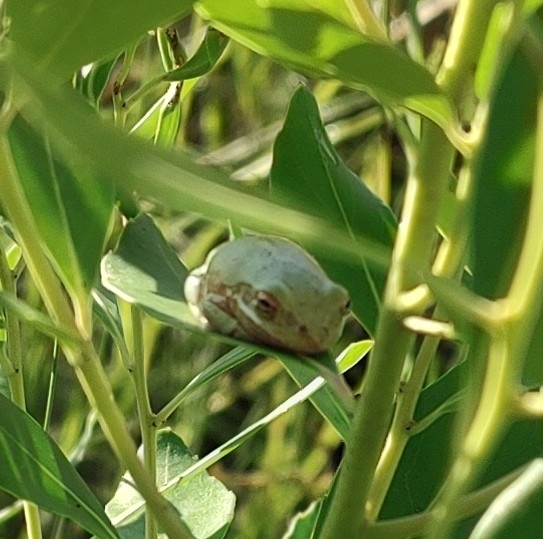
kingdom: Animalia
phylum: Chordata
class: Amphibia
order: Anura
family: Hylidae
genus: Dryophytes
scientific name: Dryophytes squirellus
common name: Squirrel treefrog
